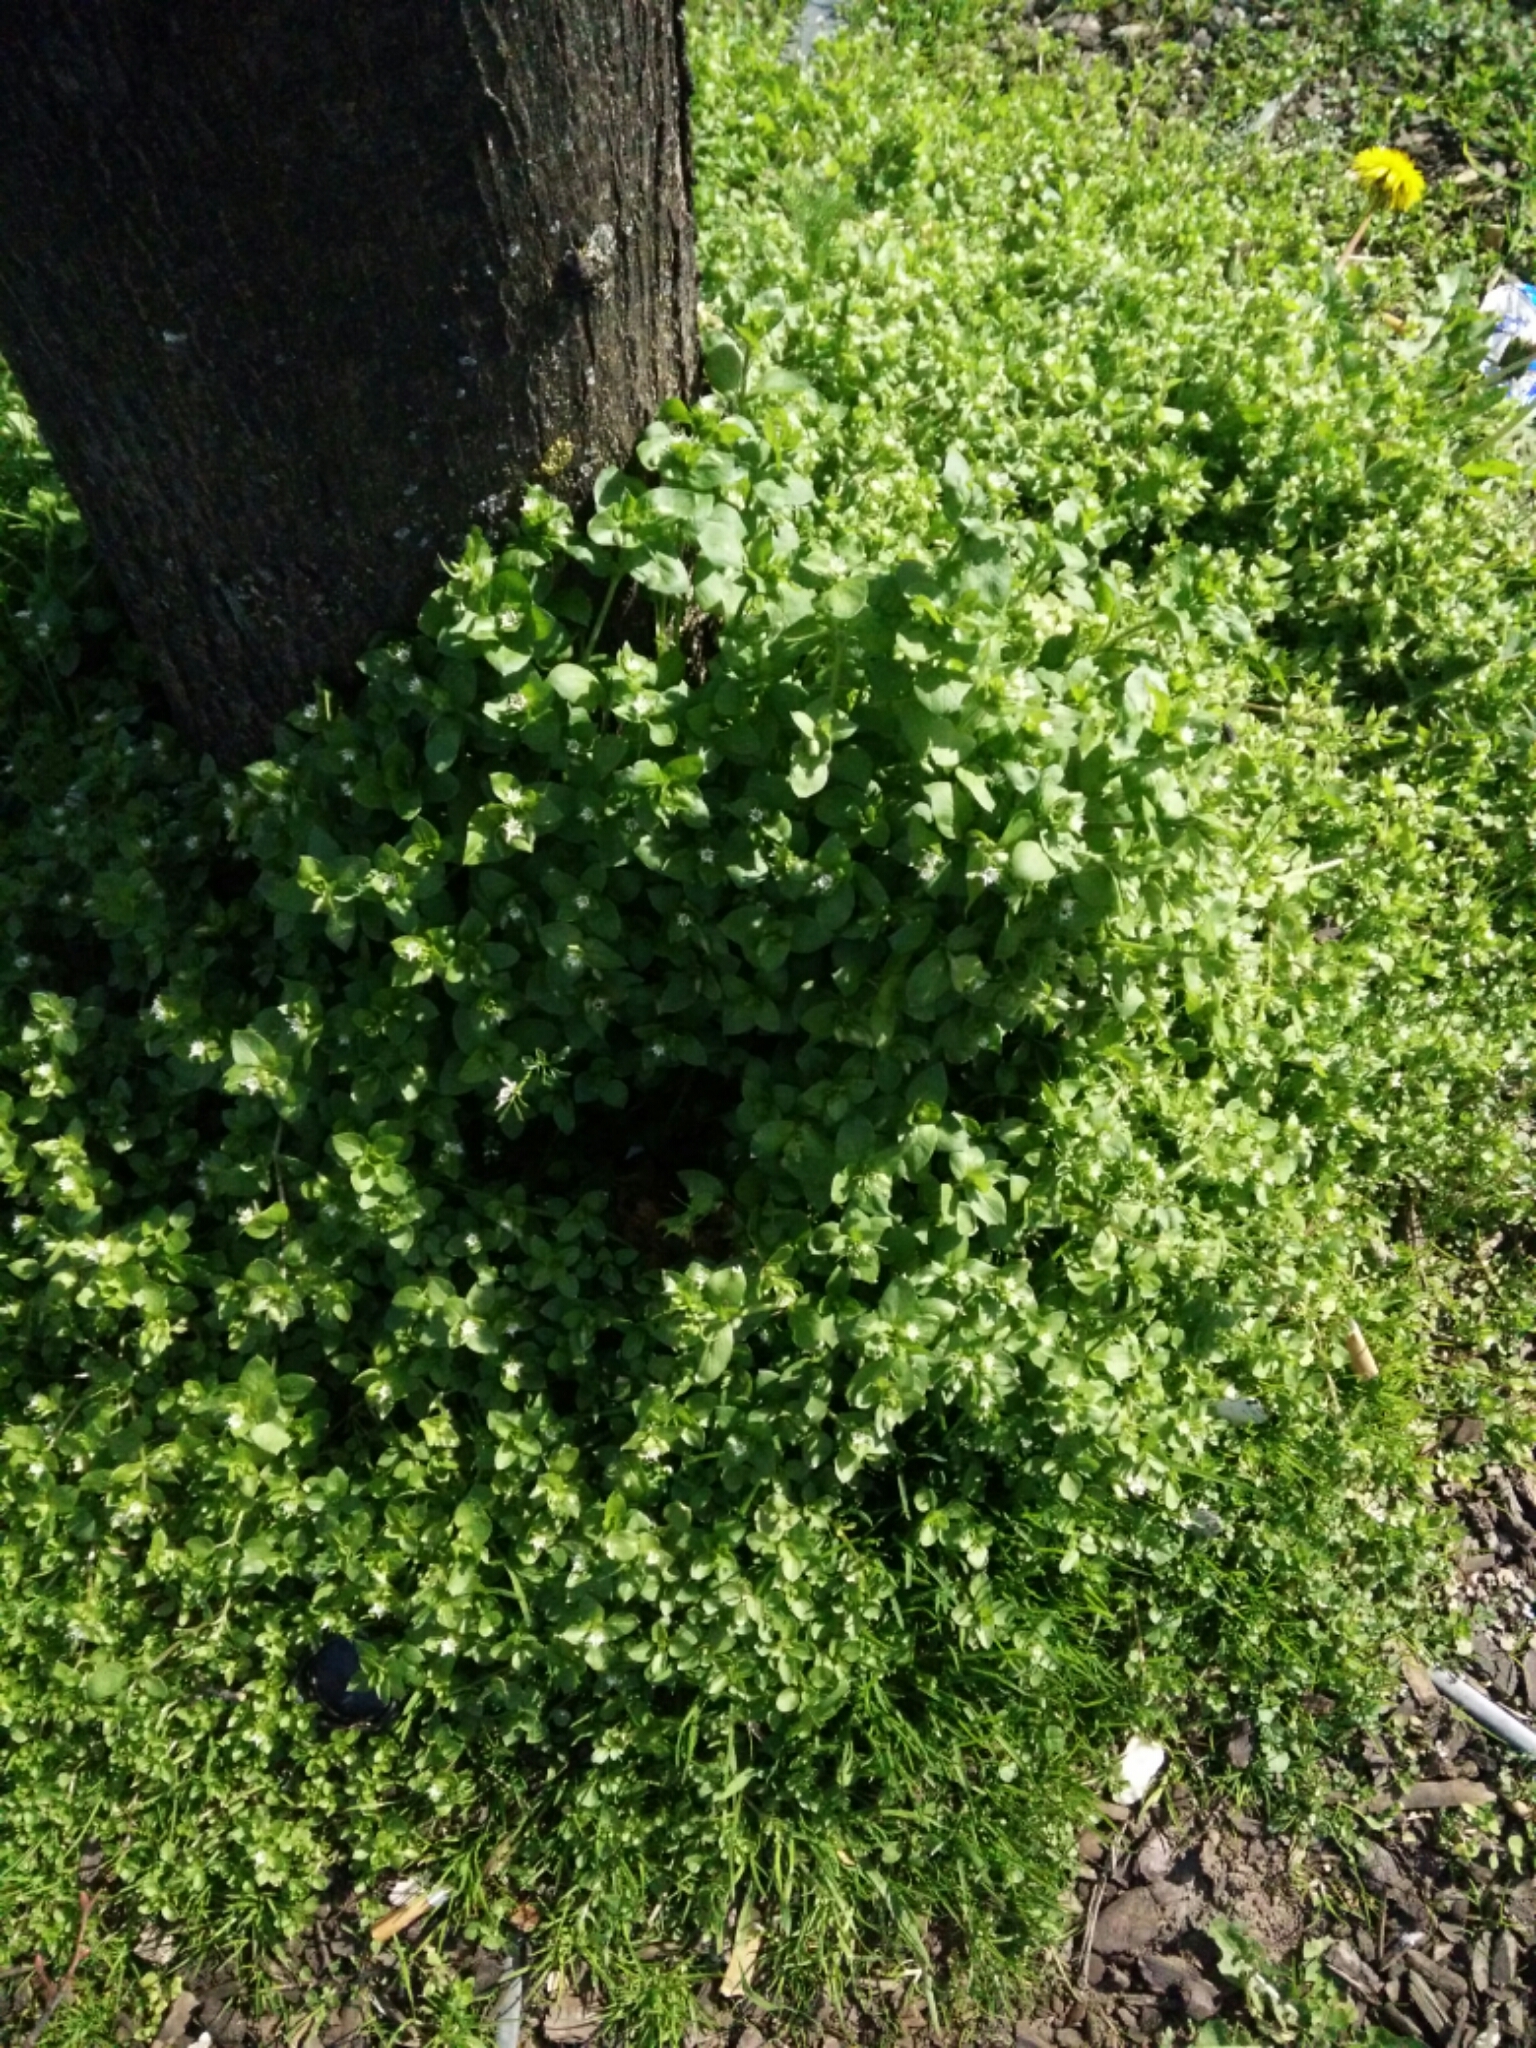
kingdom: Plantae
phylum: Tracheophyta
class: Magnoliopsida
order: Caryophyllales
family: Caryophyllaceae
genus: Stellaria
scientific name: Stellaria media
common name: Common chickweed
